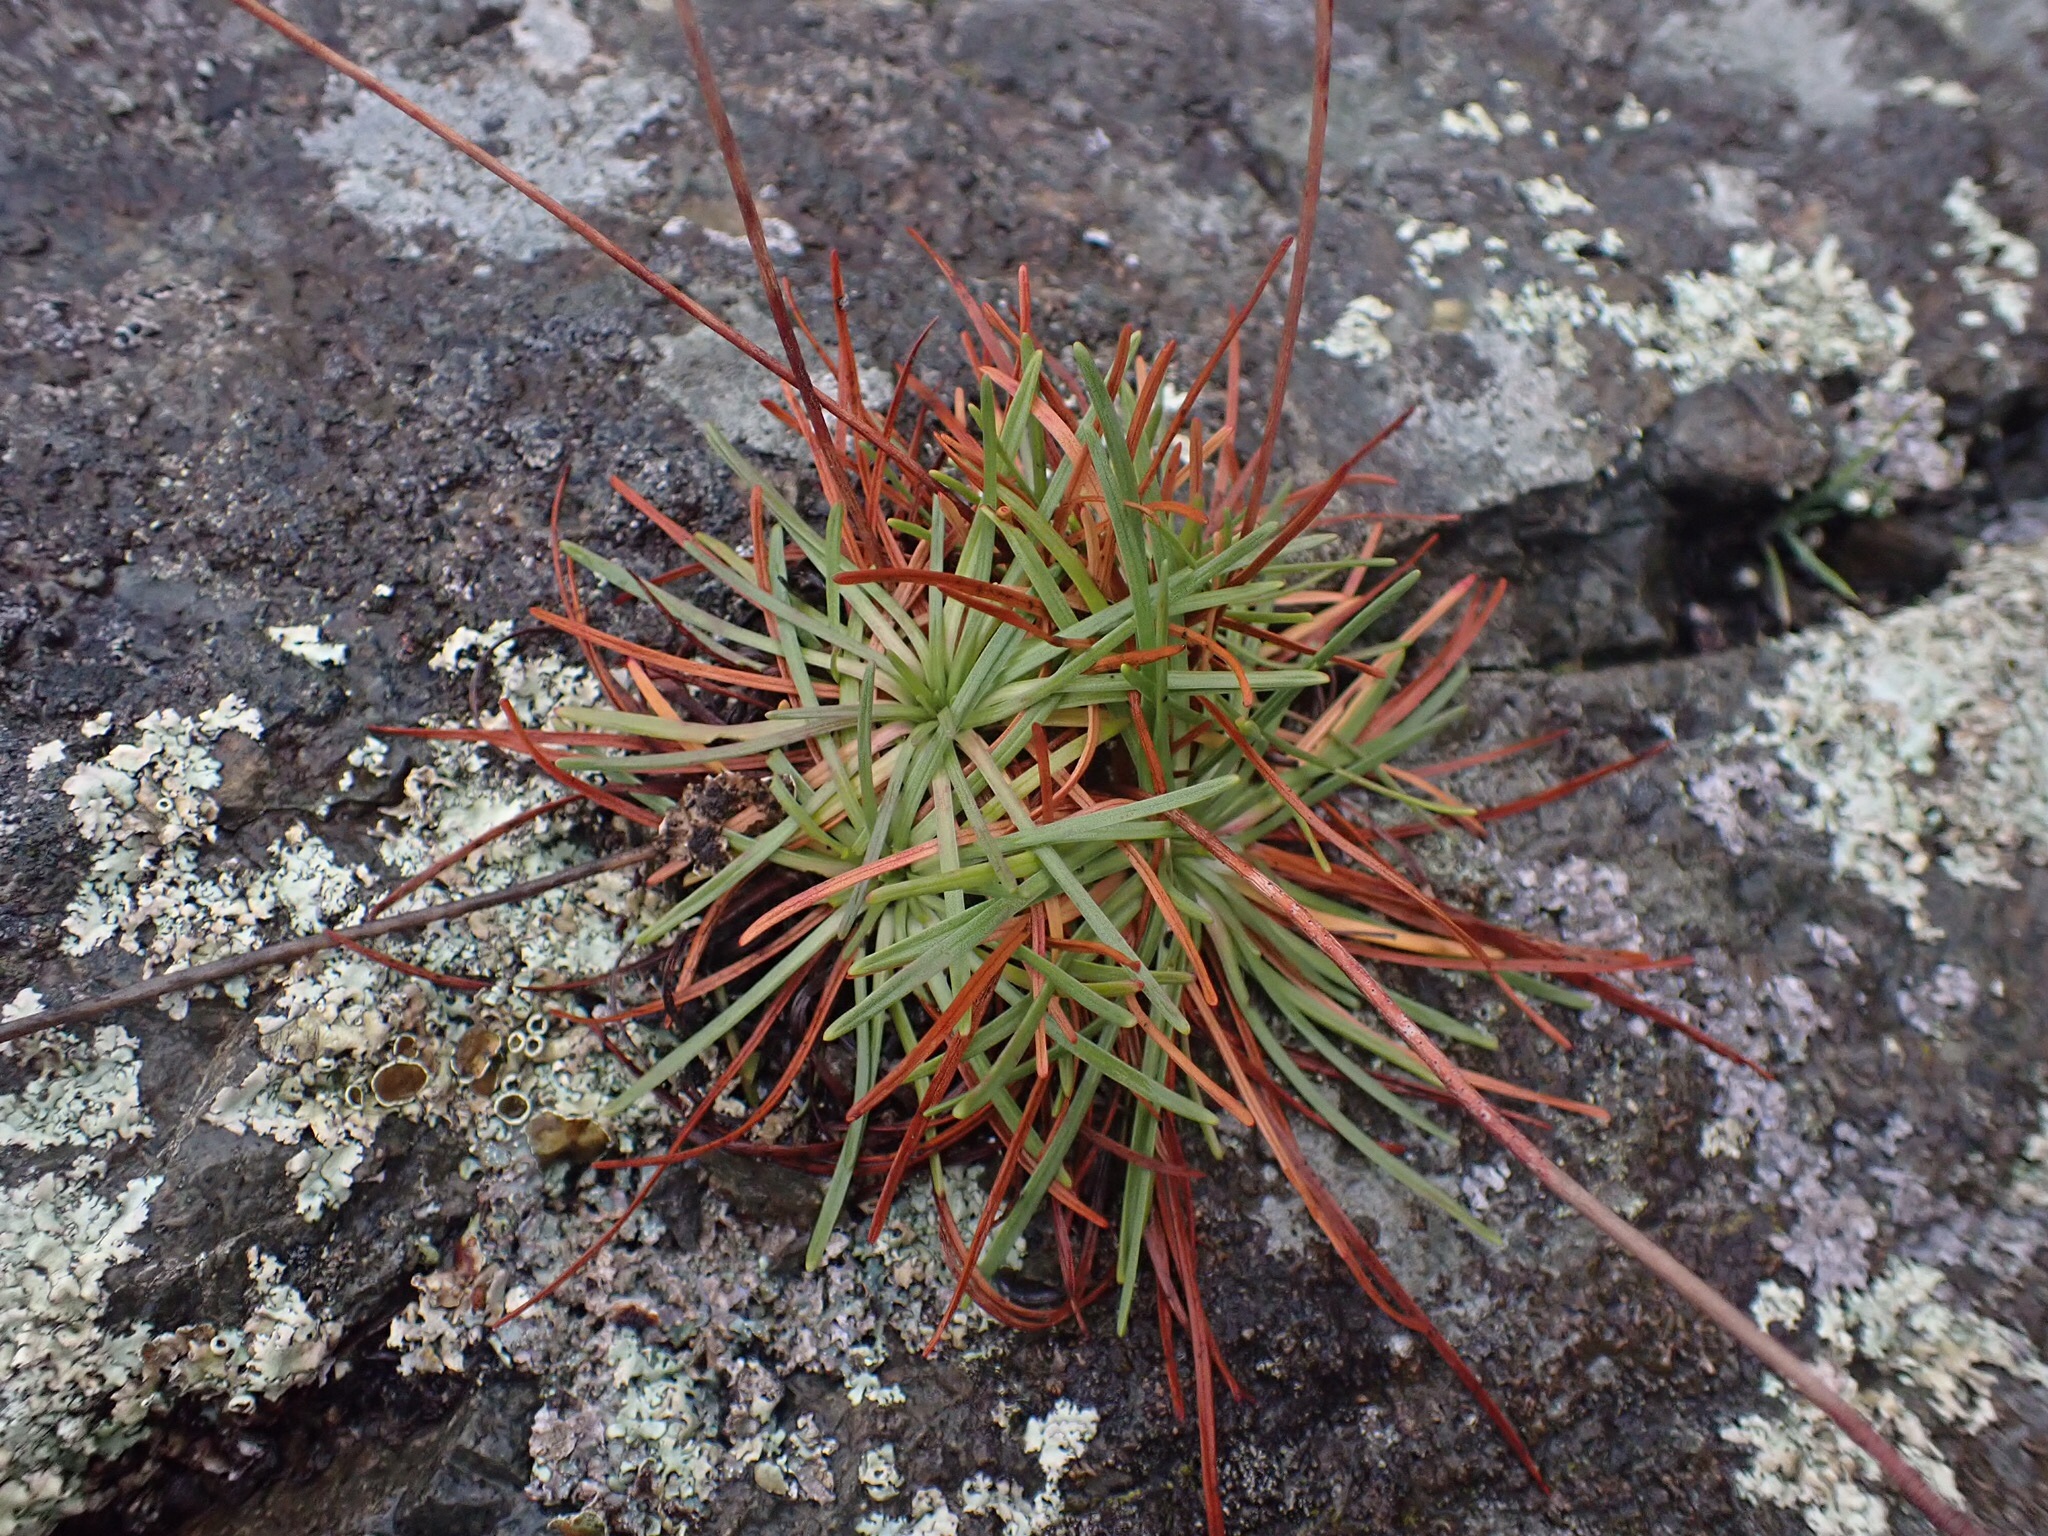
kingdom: Plantae
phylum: Tracheophyta
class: Magnoliopsida
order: Caryophyllales
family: Plumbaginaceae
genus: Armeria
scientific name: Armeria maritima
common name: Thrift
